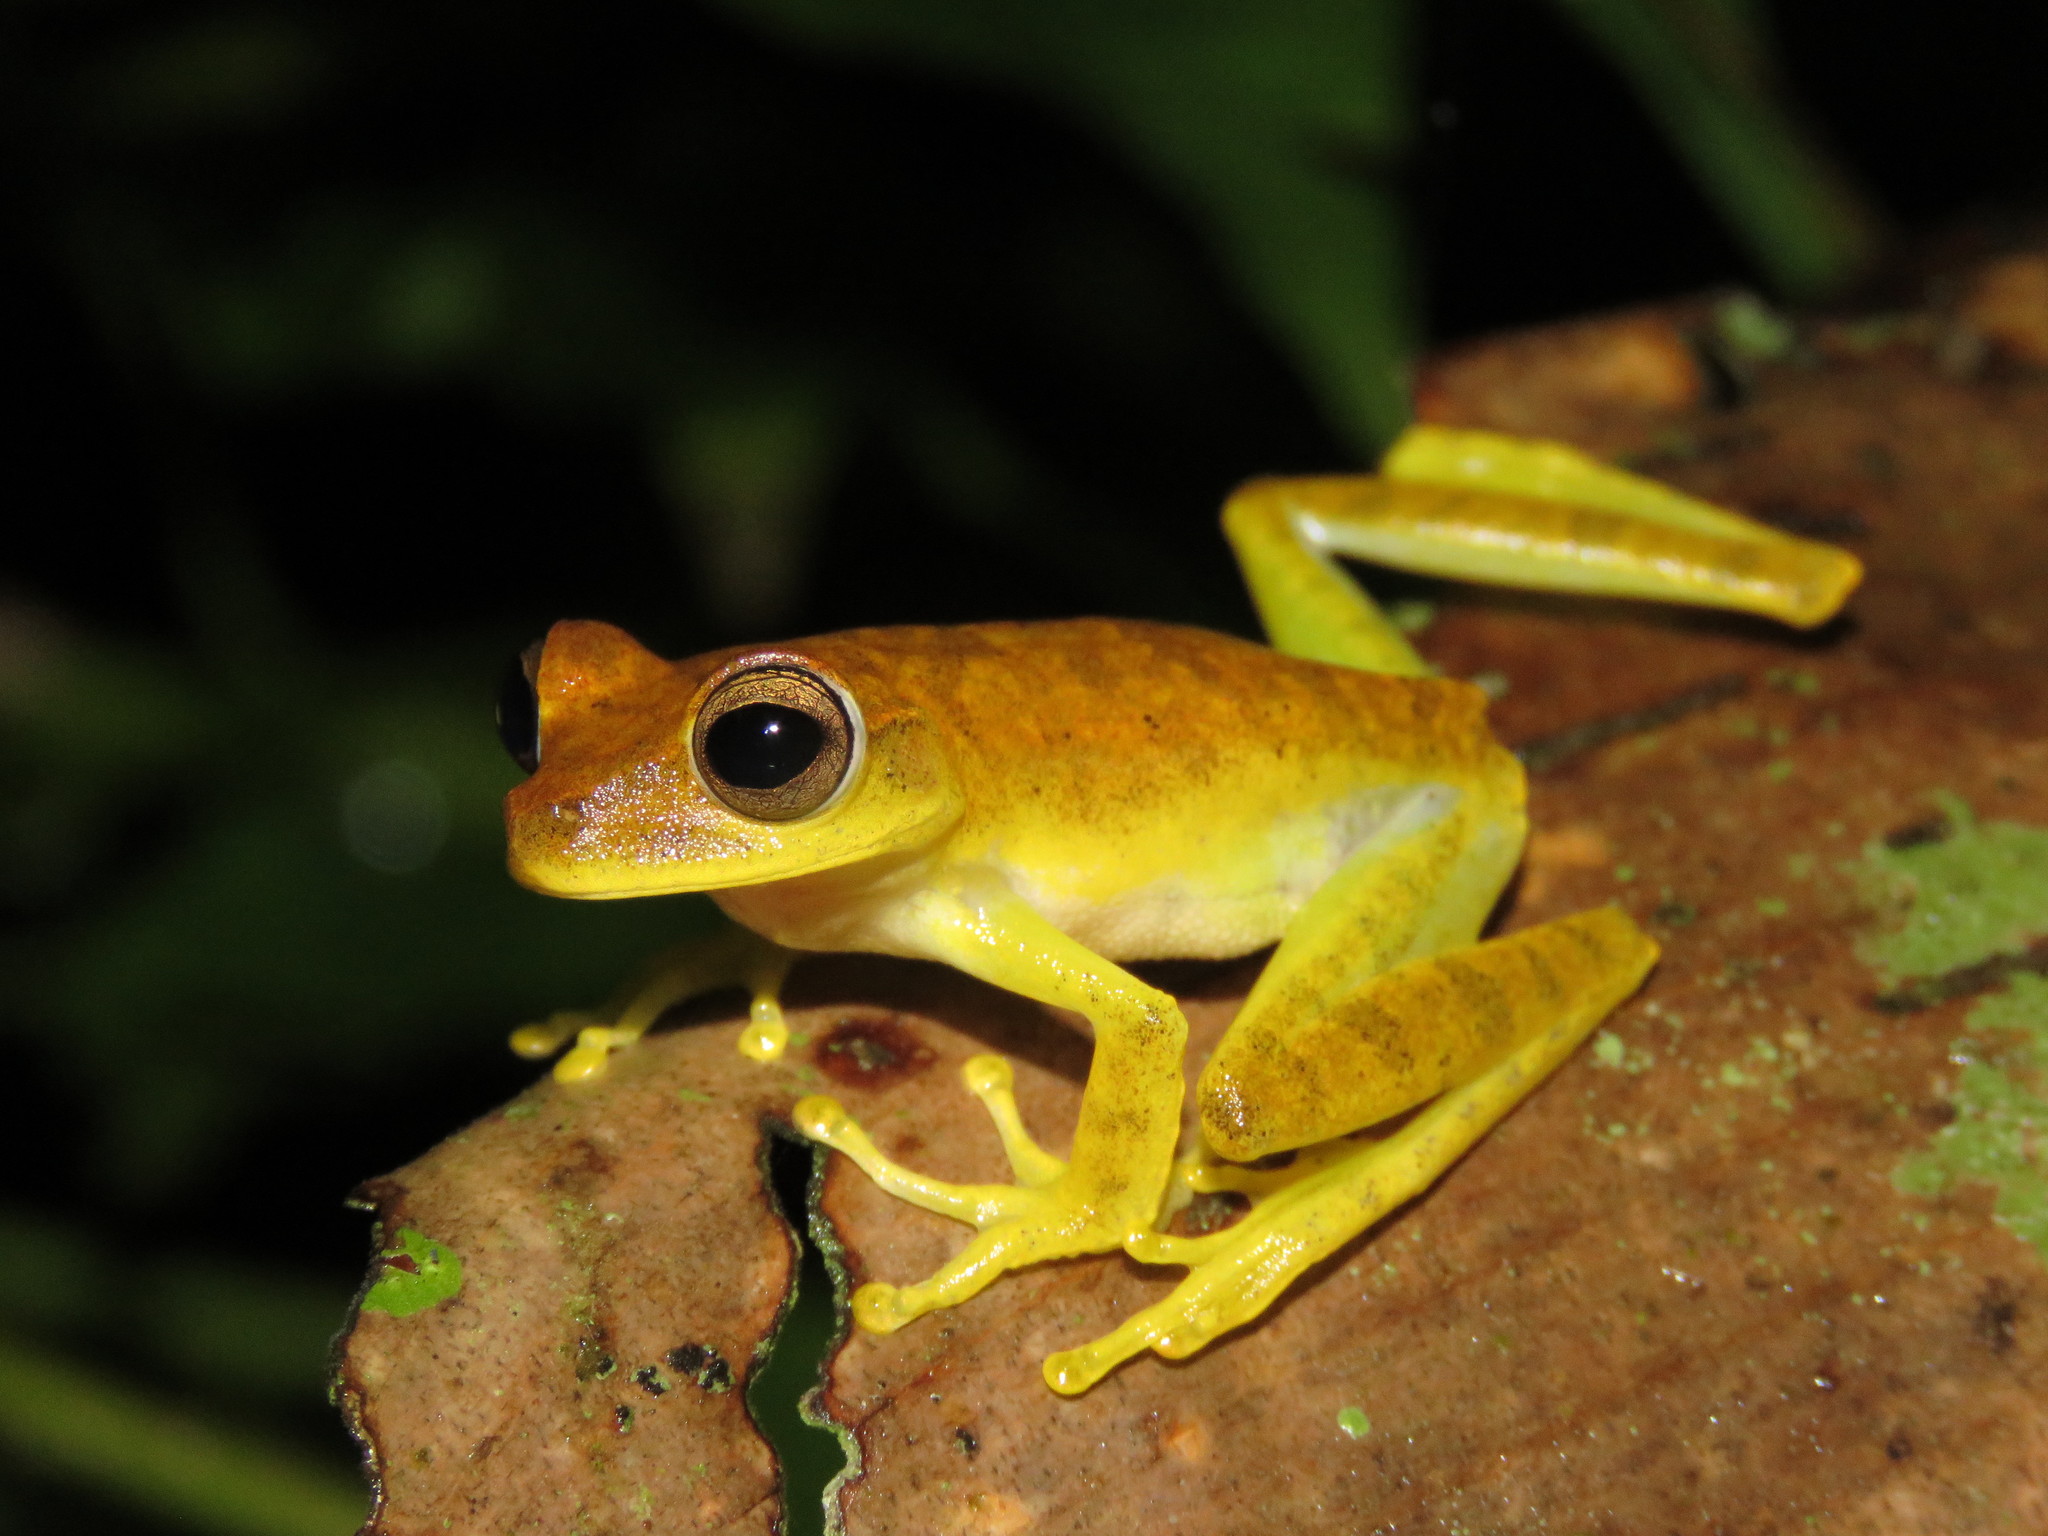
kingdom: Animalia
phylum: Chordata
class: Amphibia
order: Anura
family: Hylidae
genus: Boana
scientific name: Boana steinbachi
